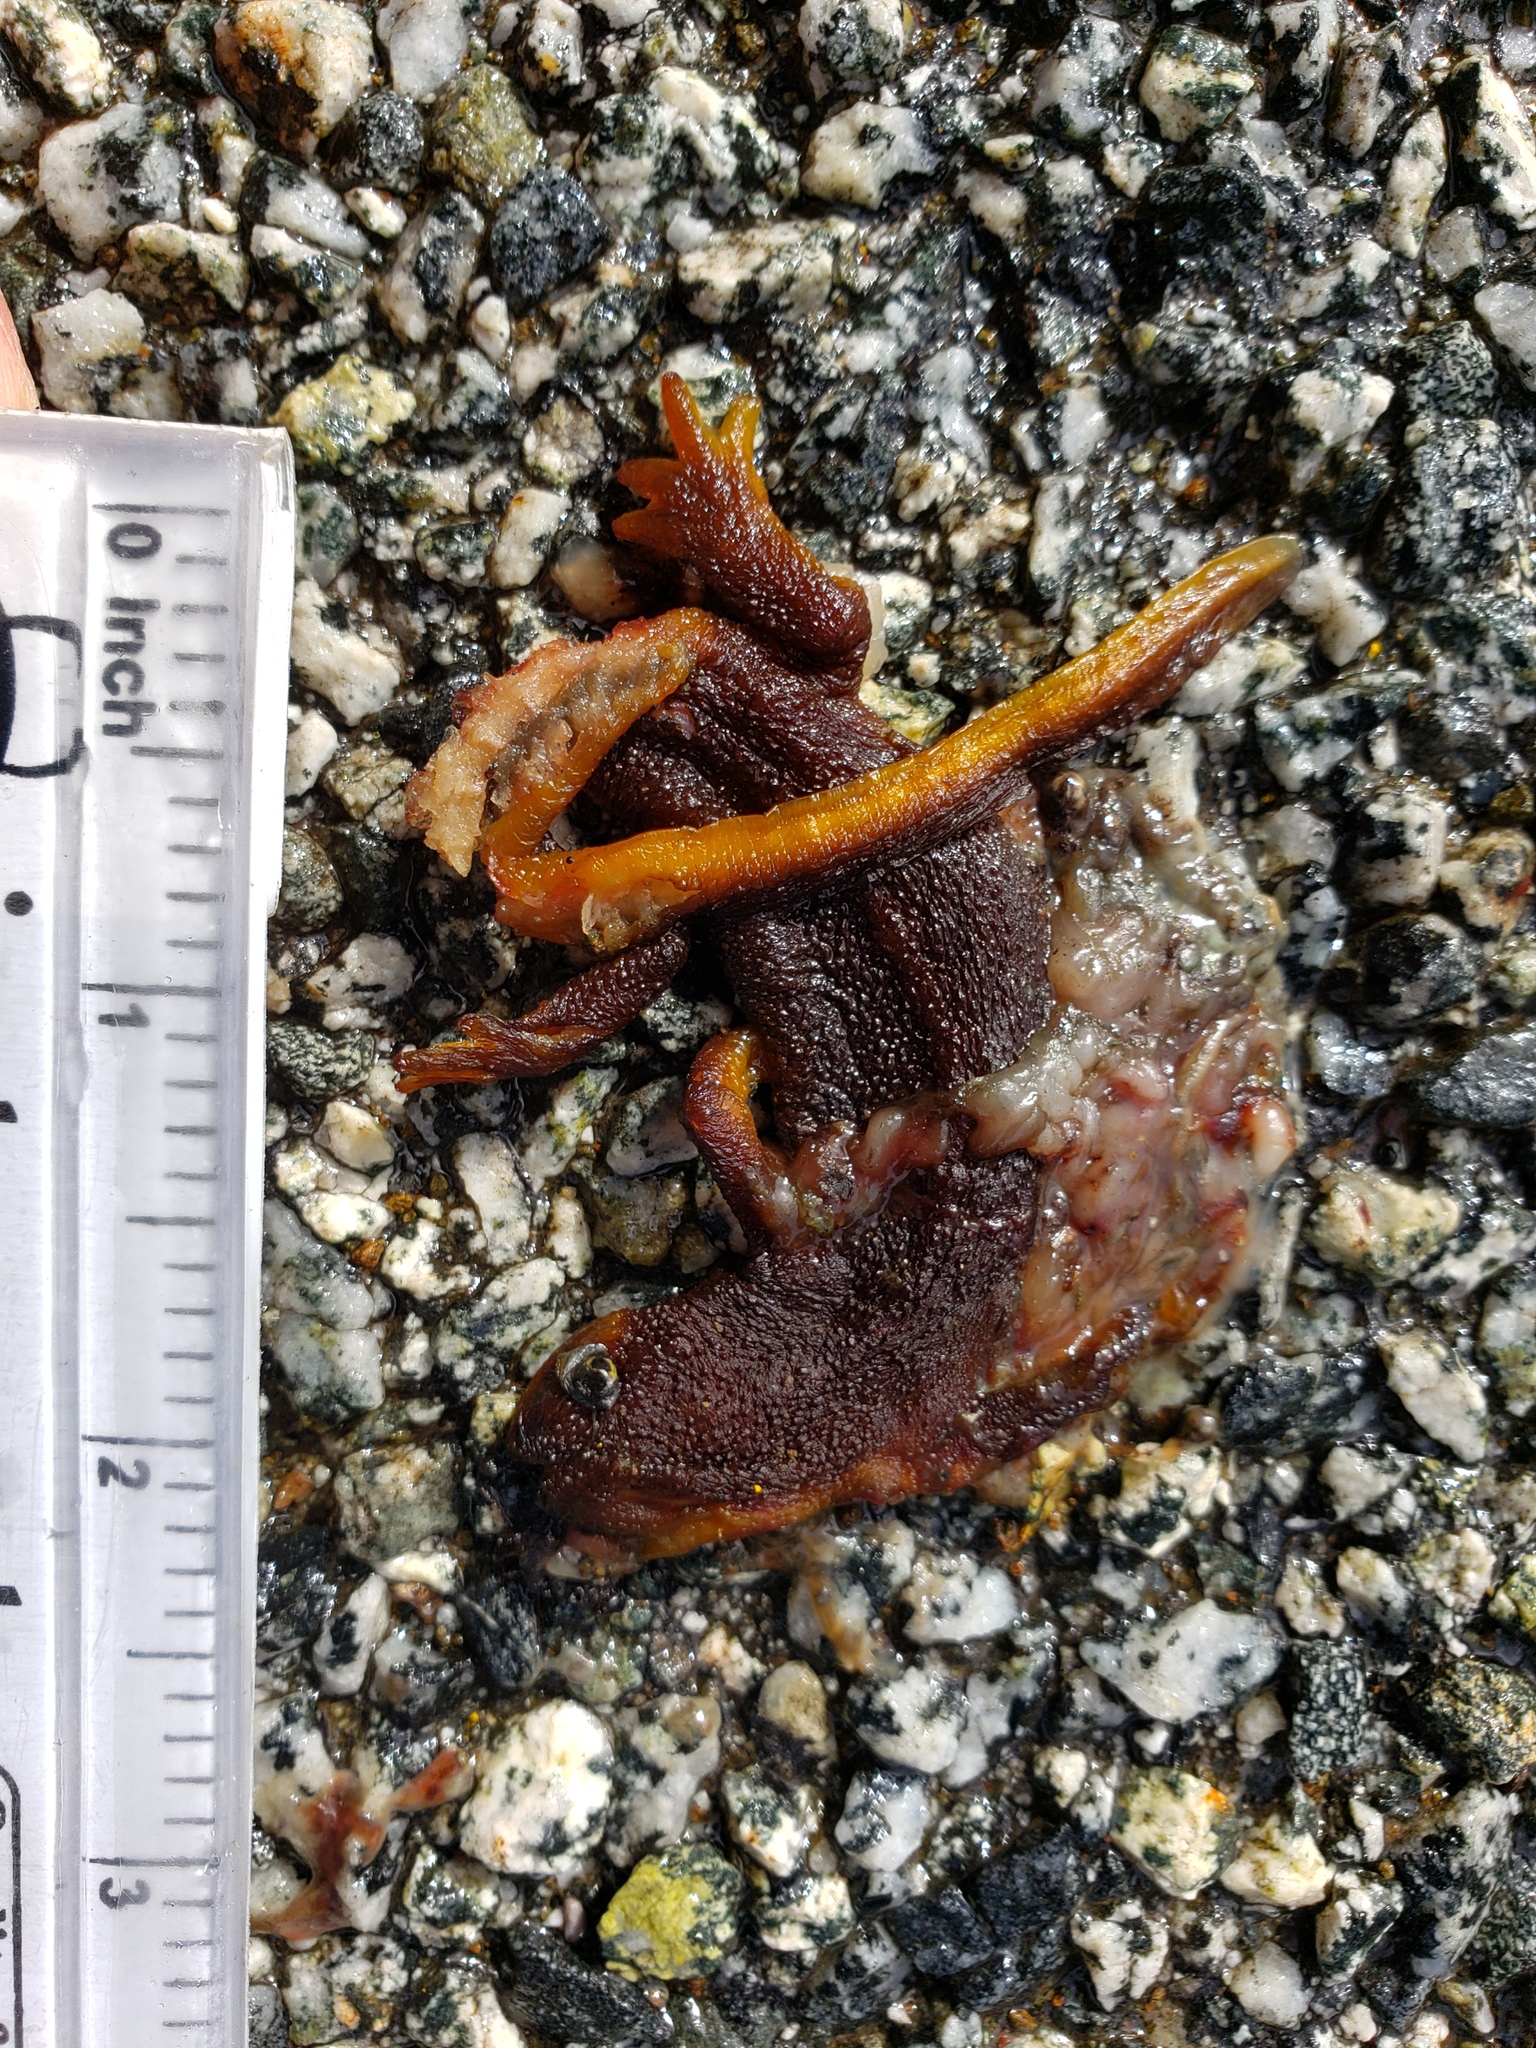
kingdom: Animalia
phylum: Chordata
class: Amphibia
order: Caudata
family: Salamandridae
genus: Taricha
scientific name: Taricha
